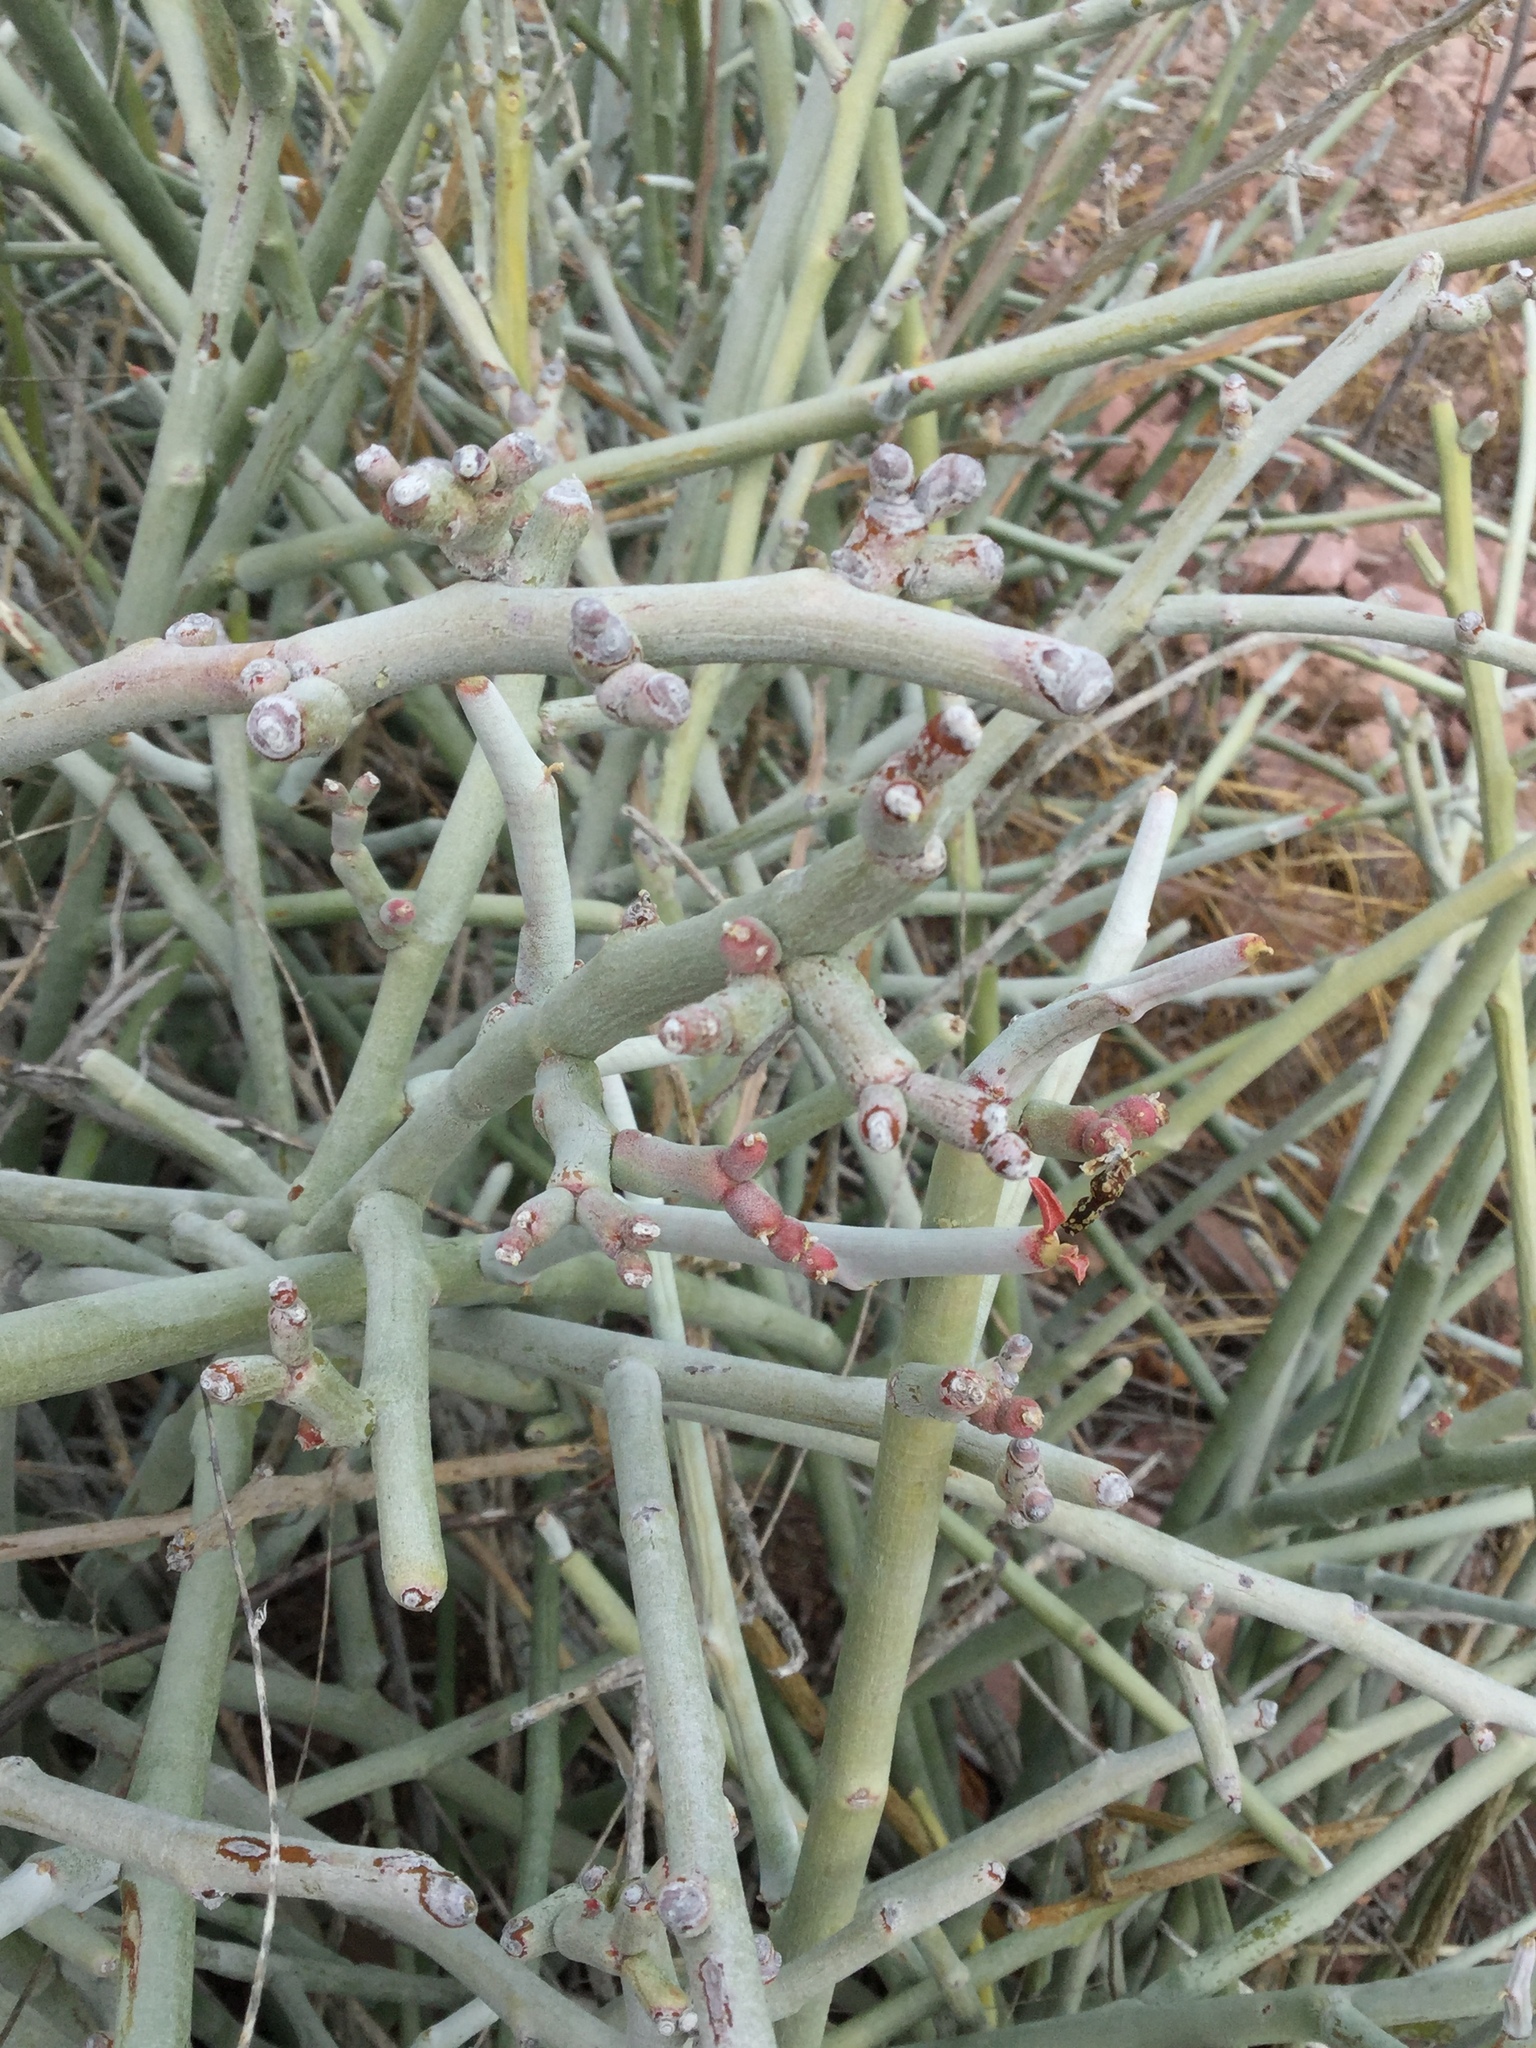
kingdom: Plantae
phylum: Tracheophyta
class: Magnoliopsida
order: Malpighiales
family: Euphorbiaceae
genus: Euphorbia
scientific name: Euphorbia lomelii
